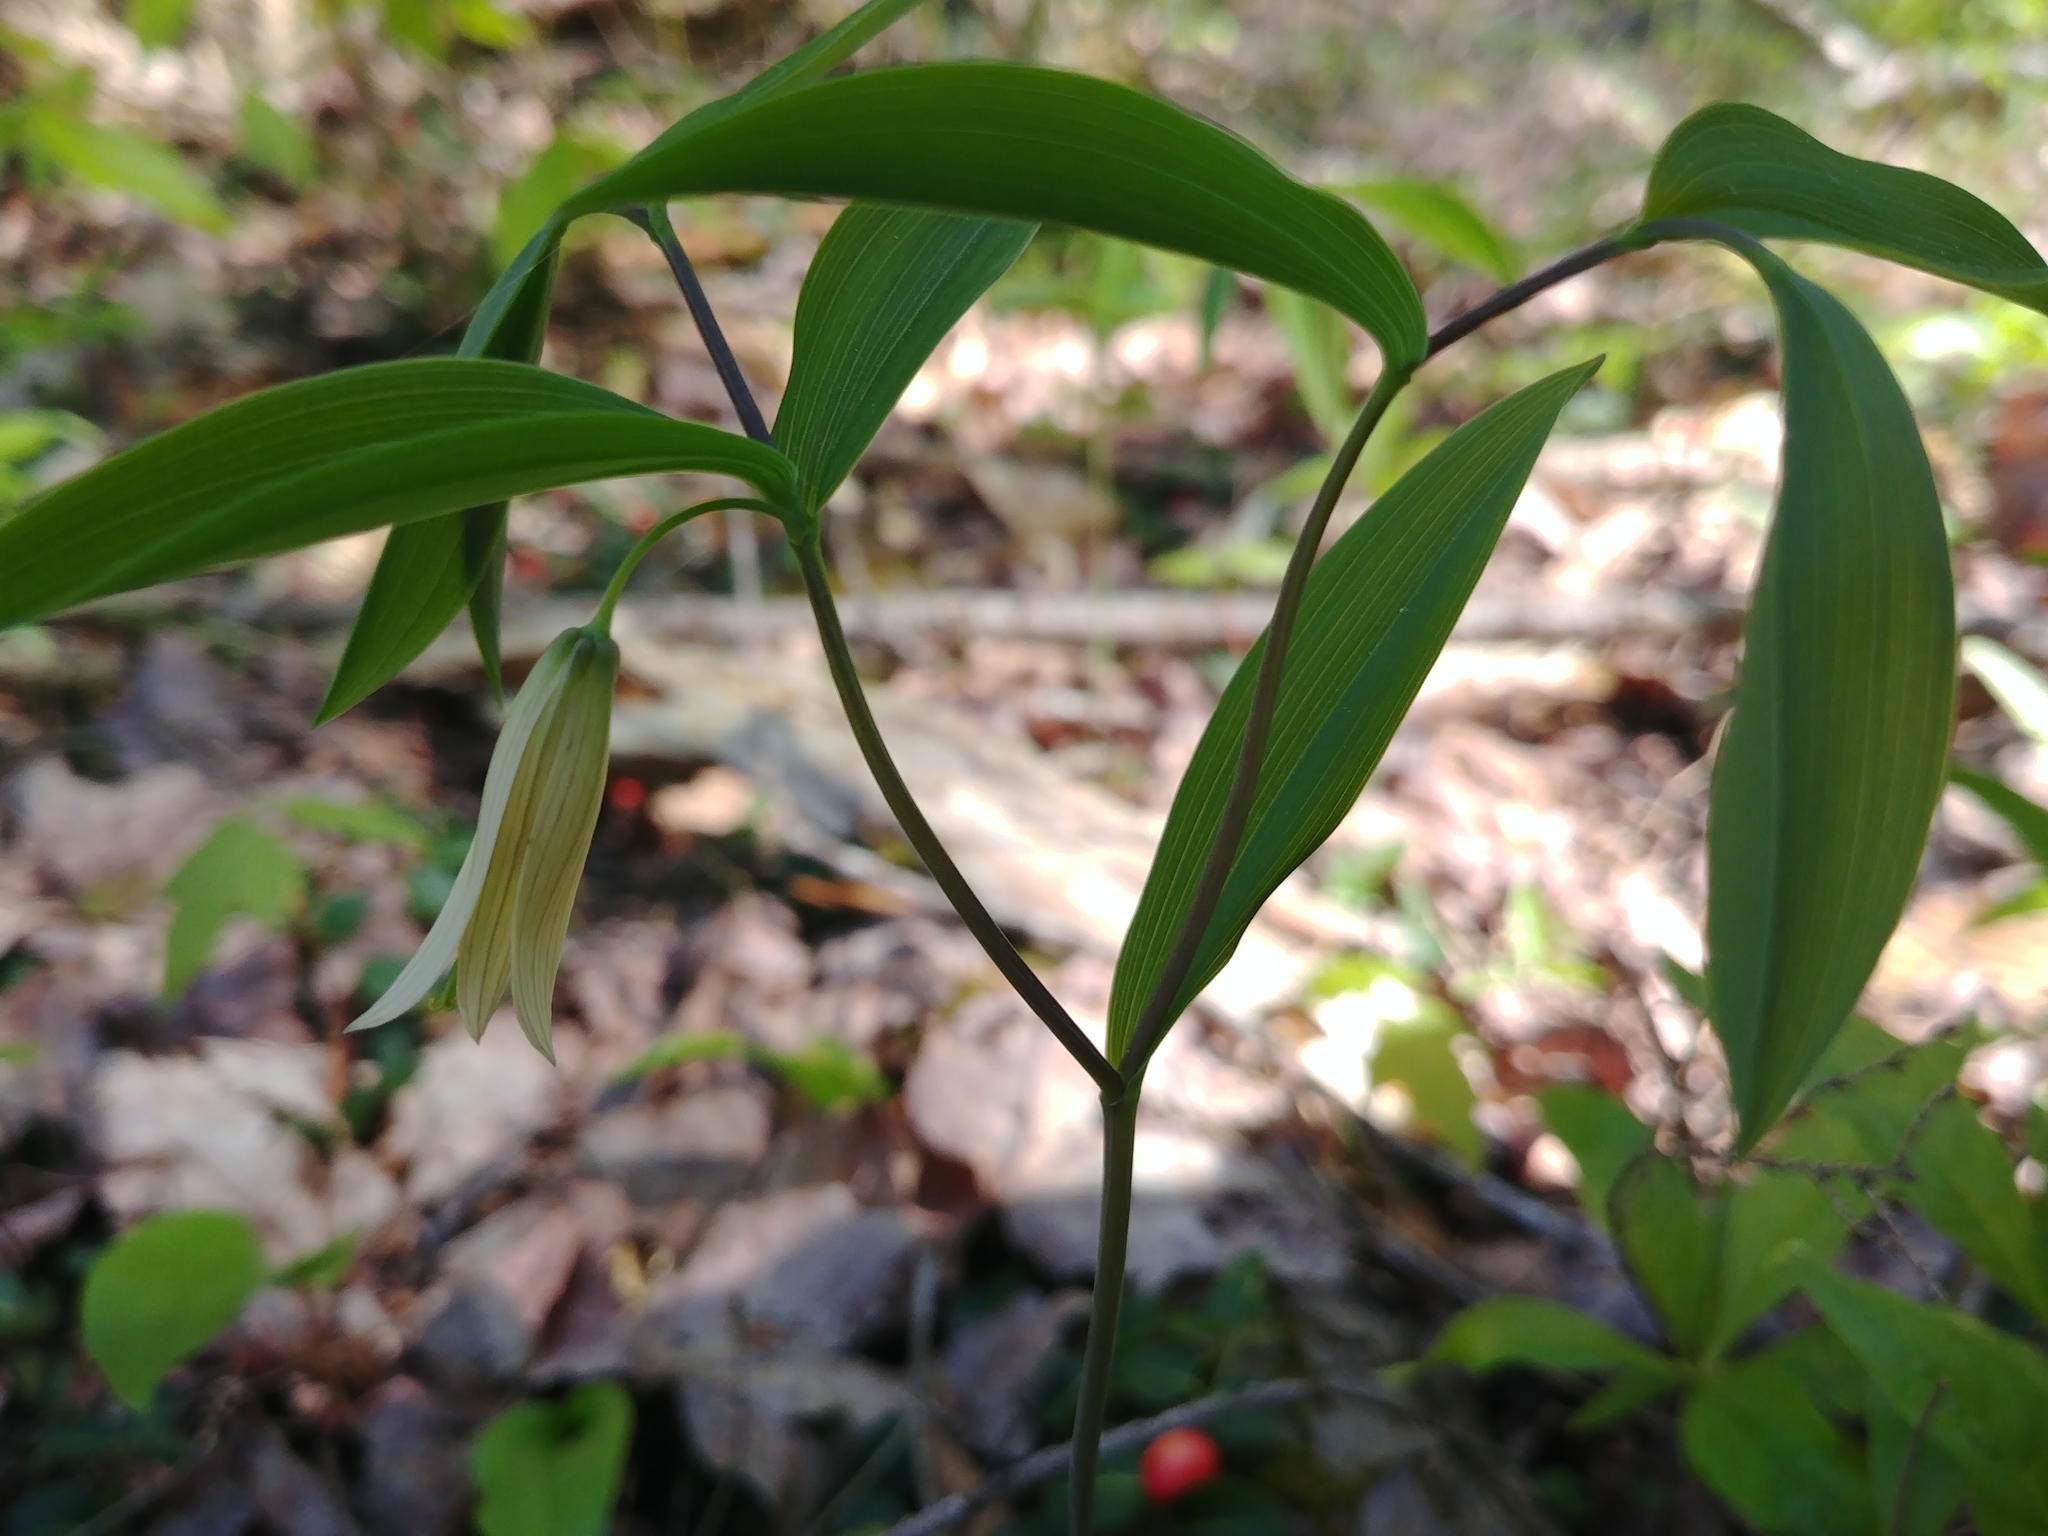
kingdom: Plantae
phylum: Tracheophyta
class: Liliopsida
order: Liliales
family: Colchicaceae
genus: Uvularia
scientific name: Uvularia sessilifolia
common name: Straw-lily
